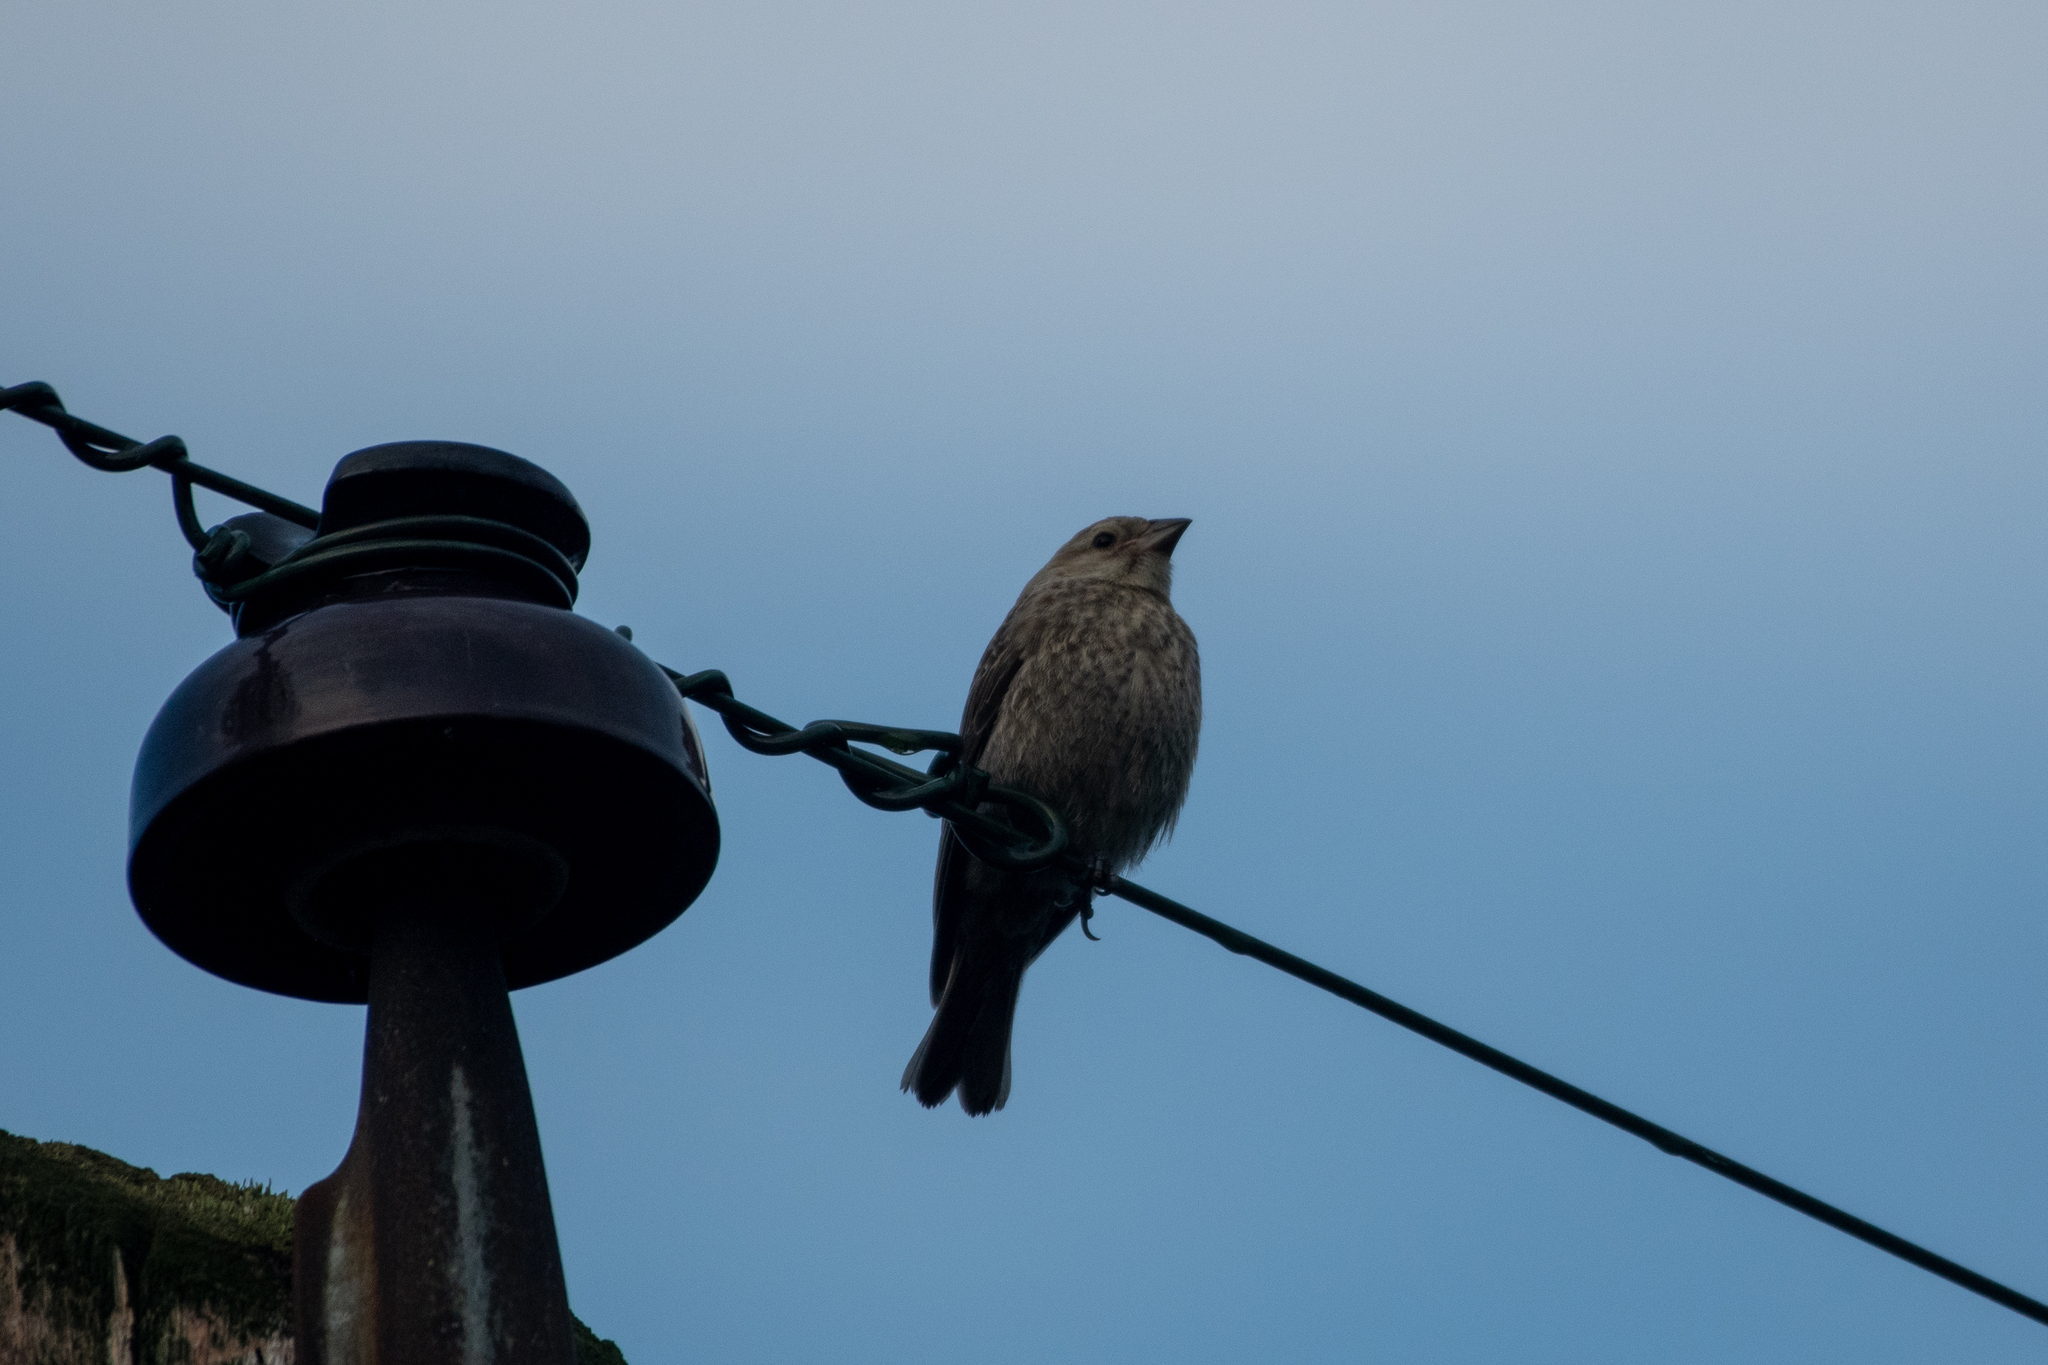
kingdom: Animalia
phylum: Chordata
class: Aves
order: Passeriformes
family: Icteridae
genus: Molothrus
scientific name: Molothrus ater
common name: Brown-headed cowbird
